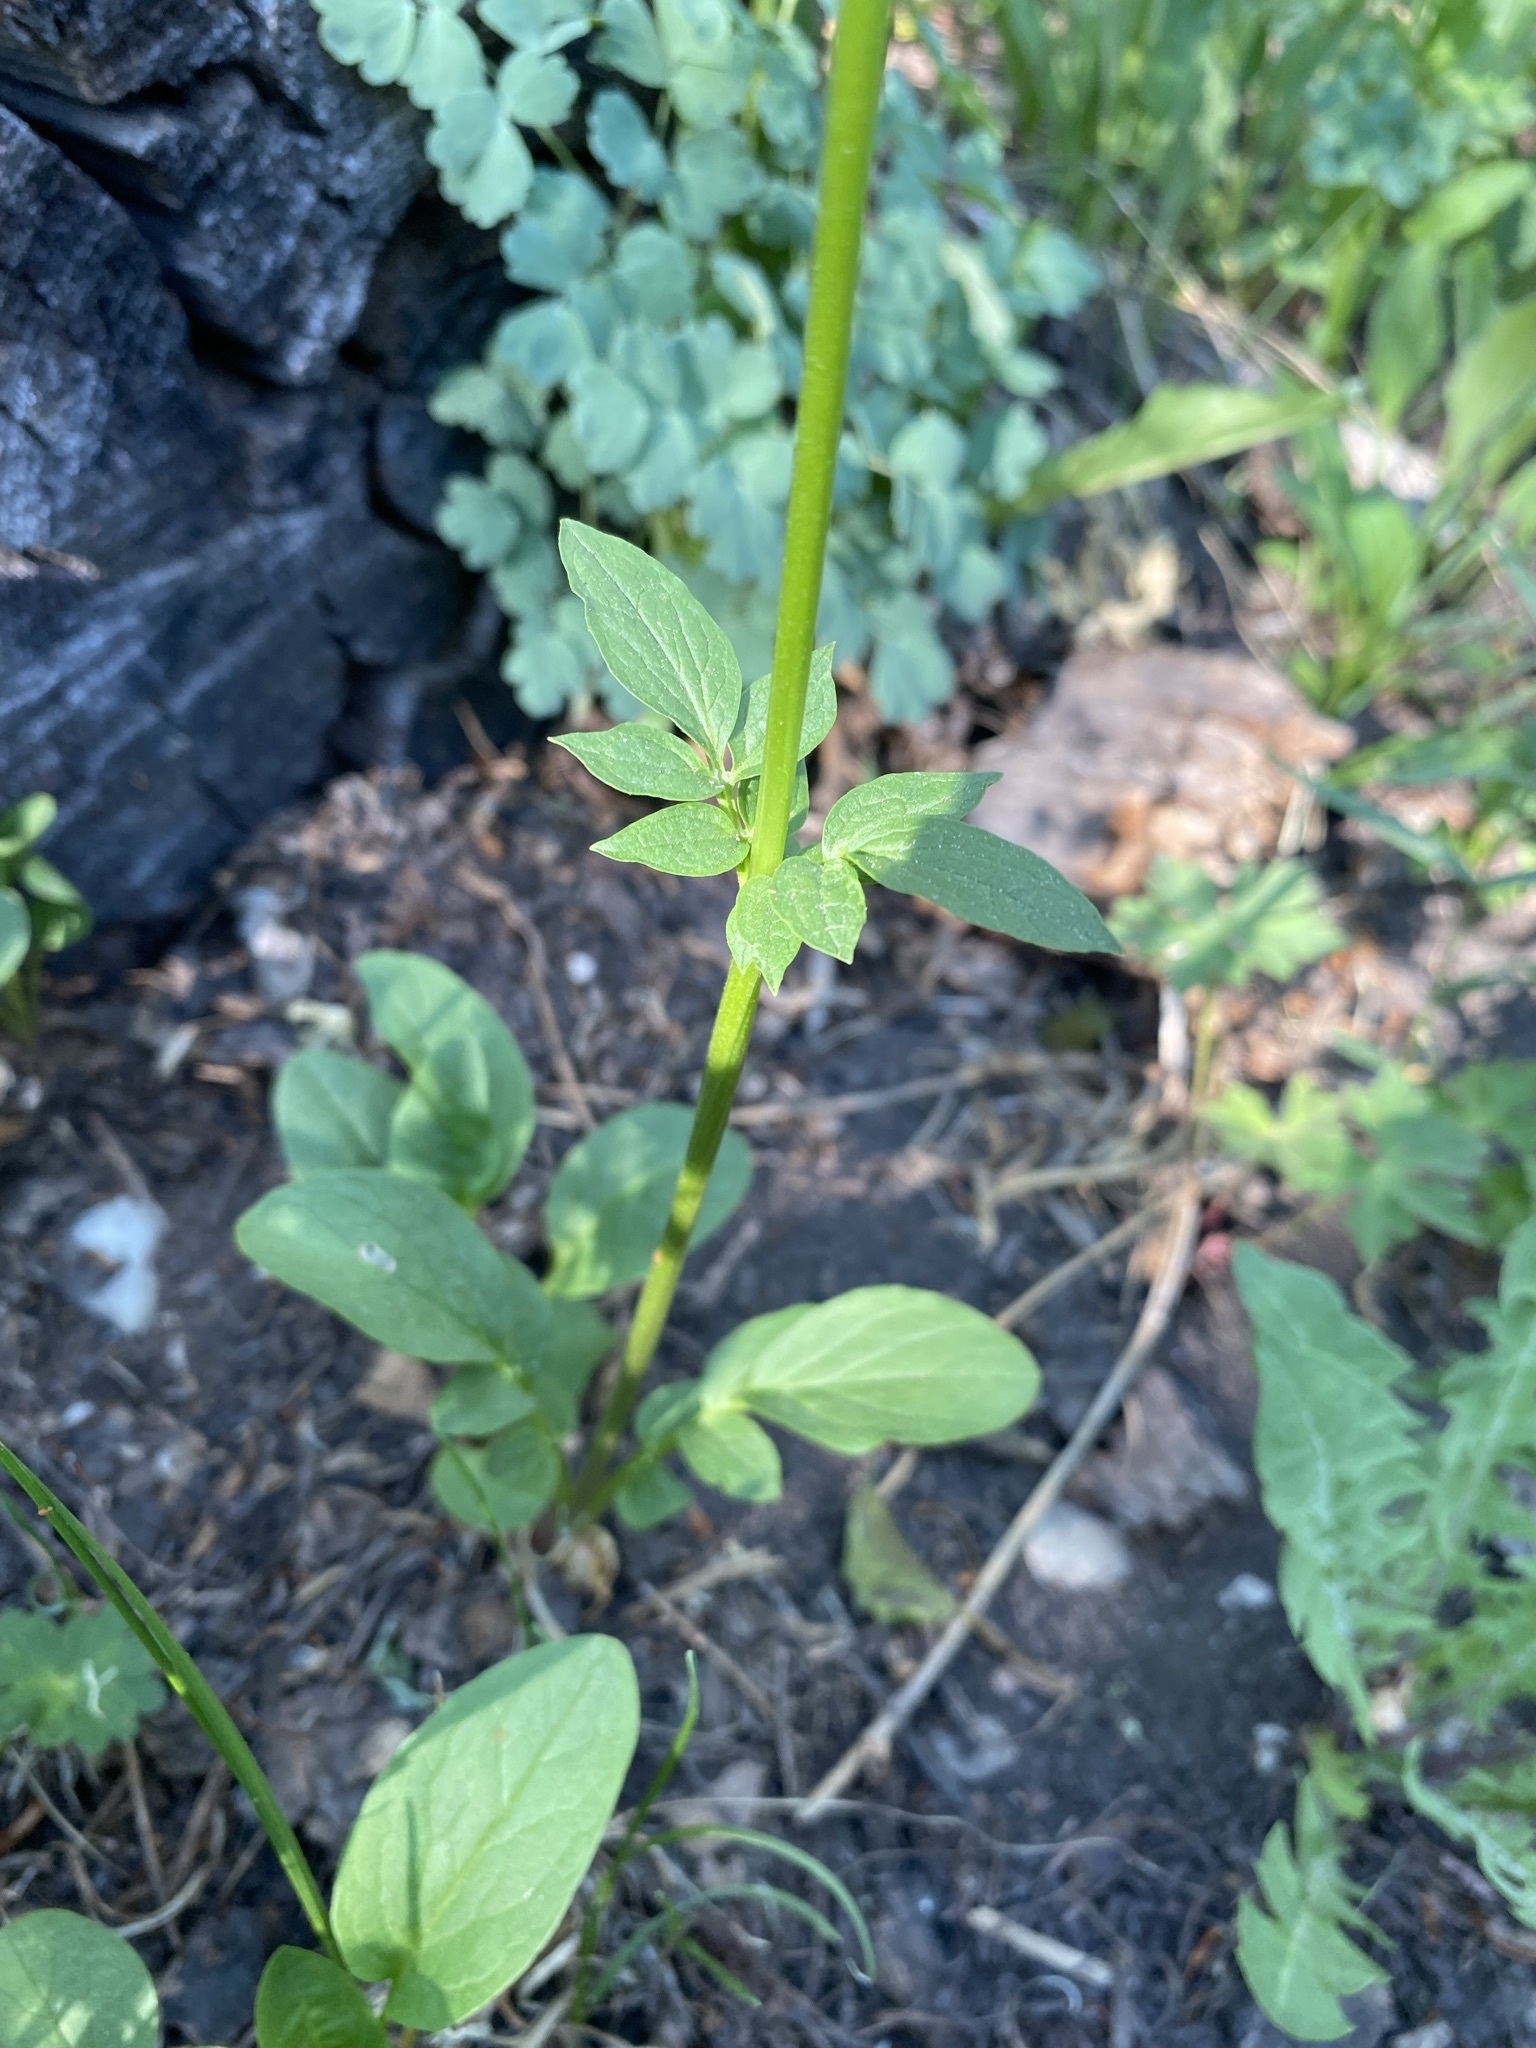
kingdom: Plantae
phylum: Tracheophyta
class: Magnoliopsida
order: Dipsacales
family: Caprifoliaceae
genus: Valeriana
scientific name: Valeriana occidentalis
